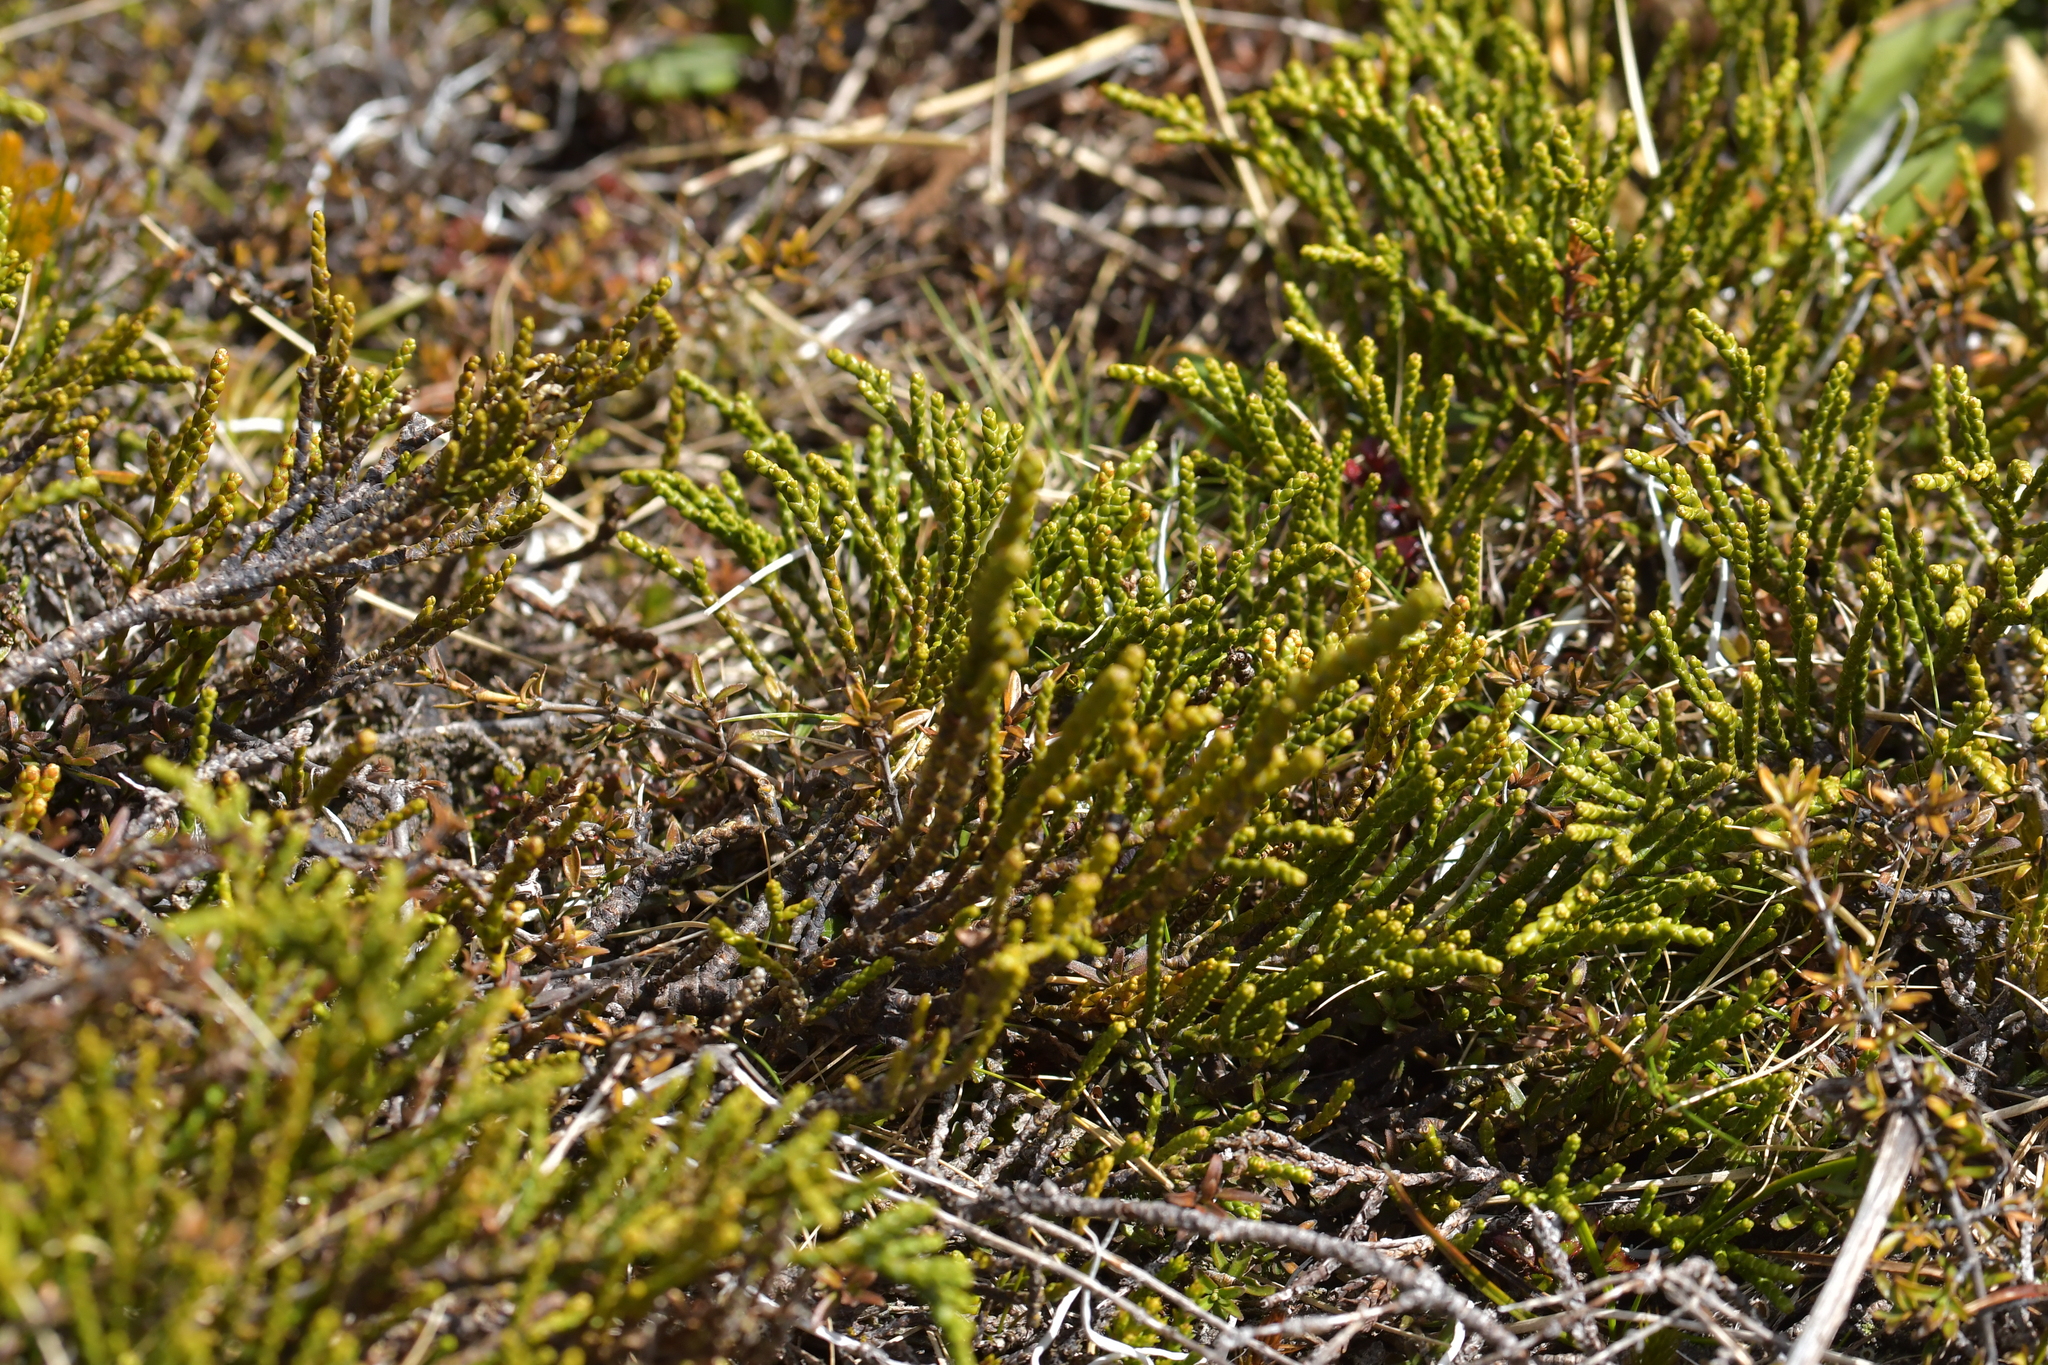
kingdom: Plantae
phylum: Tracheophyta
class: Magnoliopsida
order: Lamiales
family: Plantaginaceae
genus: Veronica
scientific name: Veronica hectorii
